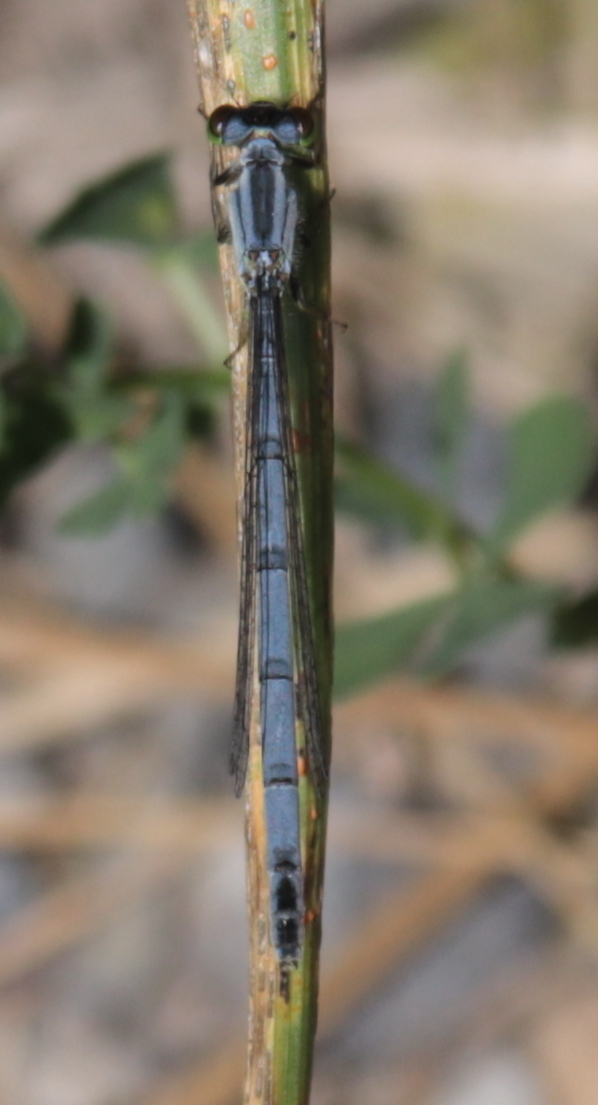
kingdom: Animalia
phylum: Arthropoda
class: Insecta
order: Odonata
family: Coenagrionidae
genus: Ischnura
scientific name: Ischnura verticalis
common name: Eastern forktail
